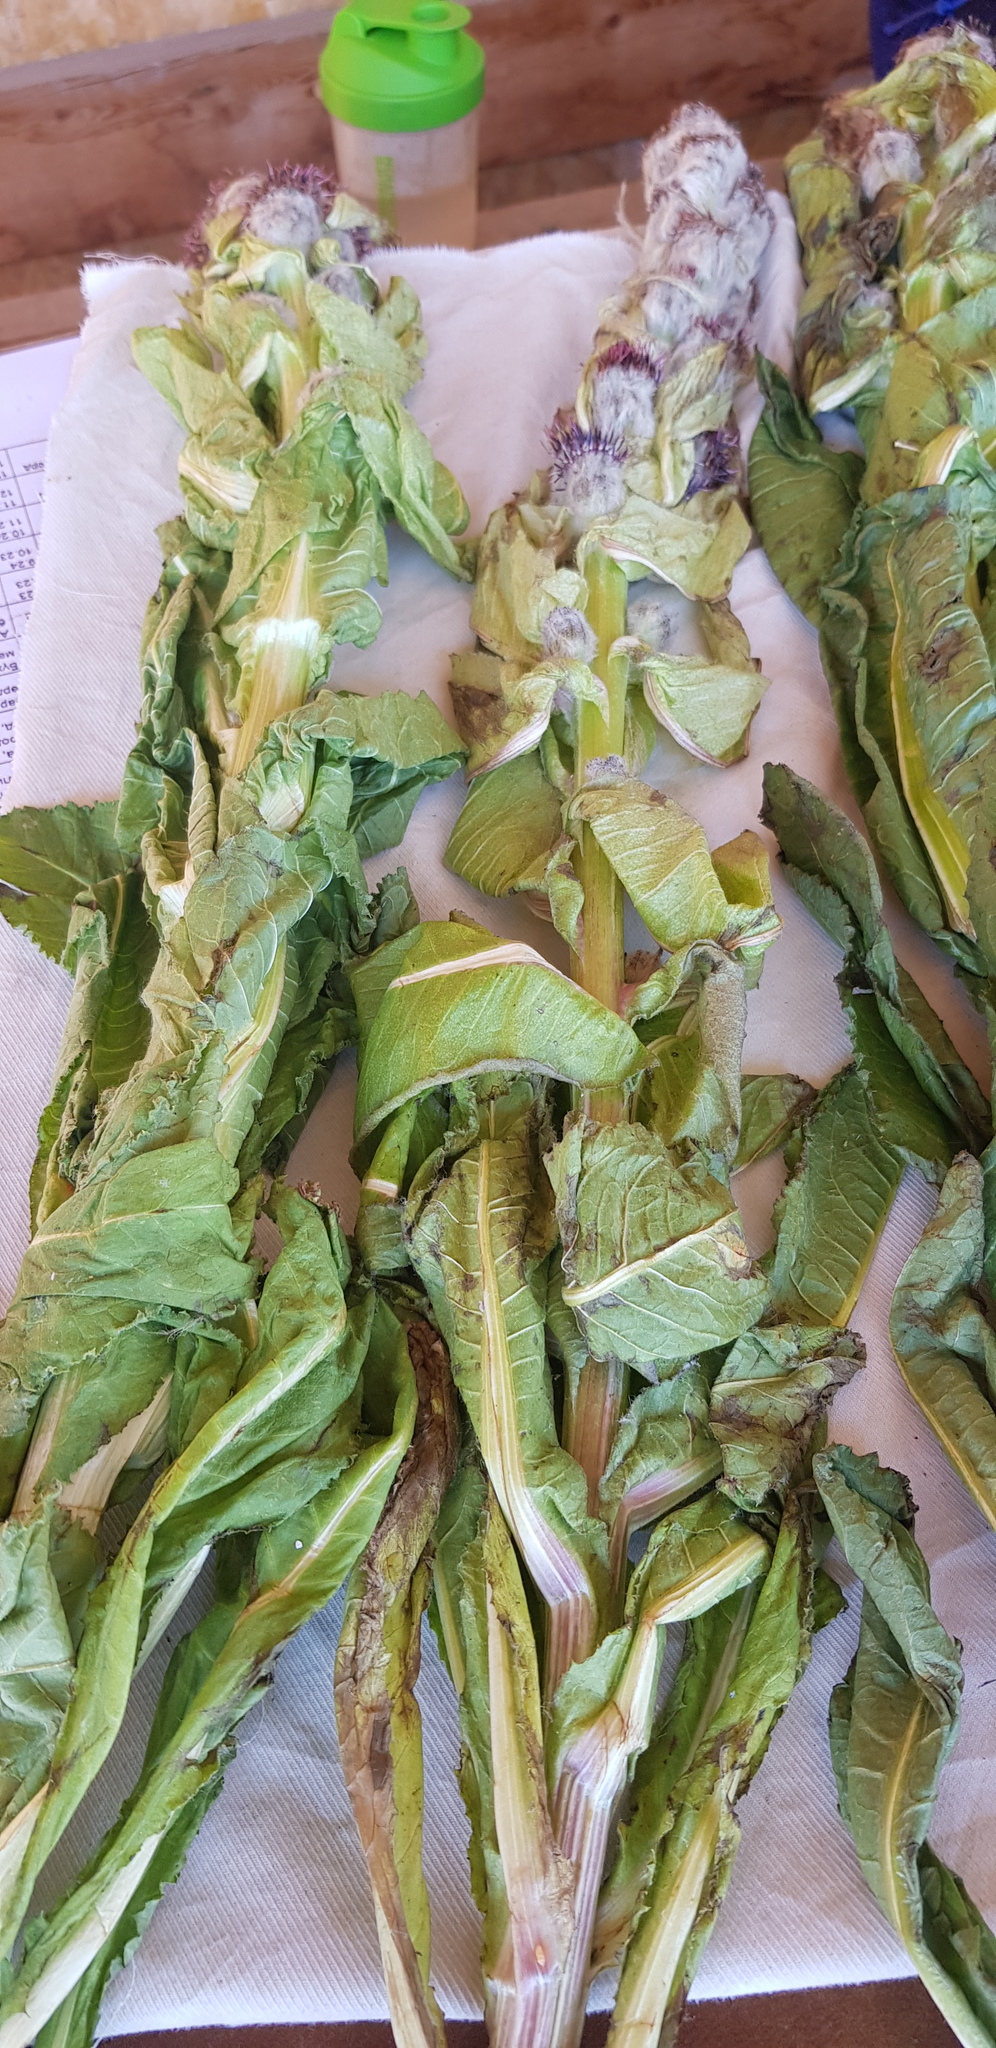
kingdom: Plantae
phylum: Tracheophyta
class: Magnoliopsida
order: Asterales
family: Asteraceae
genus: Saussurea
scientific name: Saussurea involucrata
